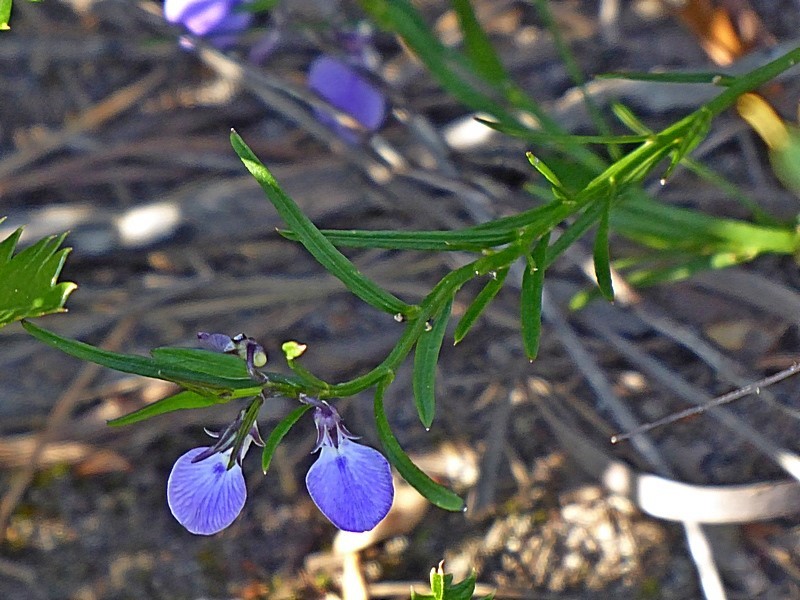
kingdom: Plantae
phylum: Tracheophyta
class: Magnoliopsida
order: Malpighiales
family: Violaceae
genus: Pigea
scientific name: Pigea vernonii
